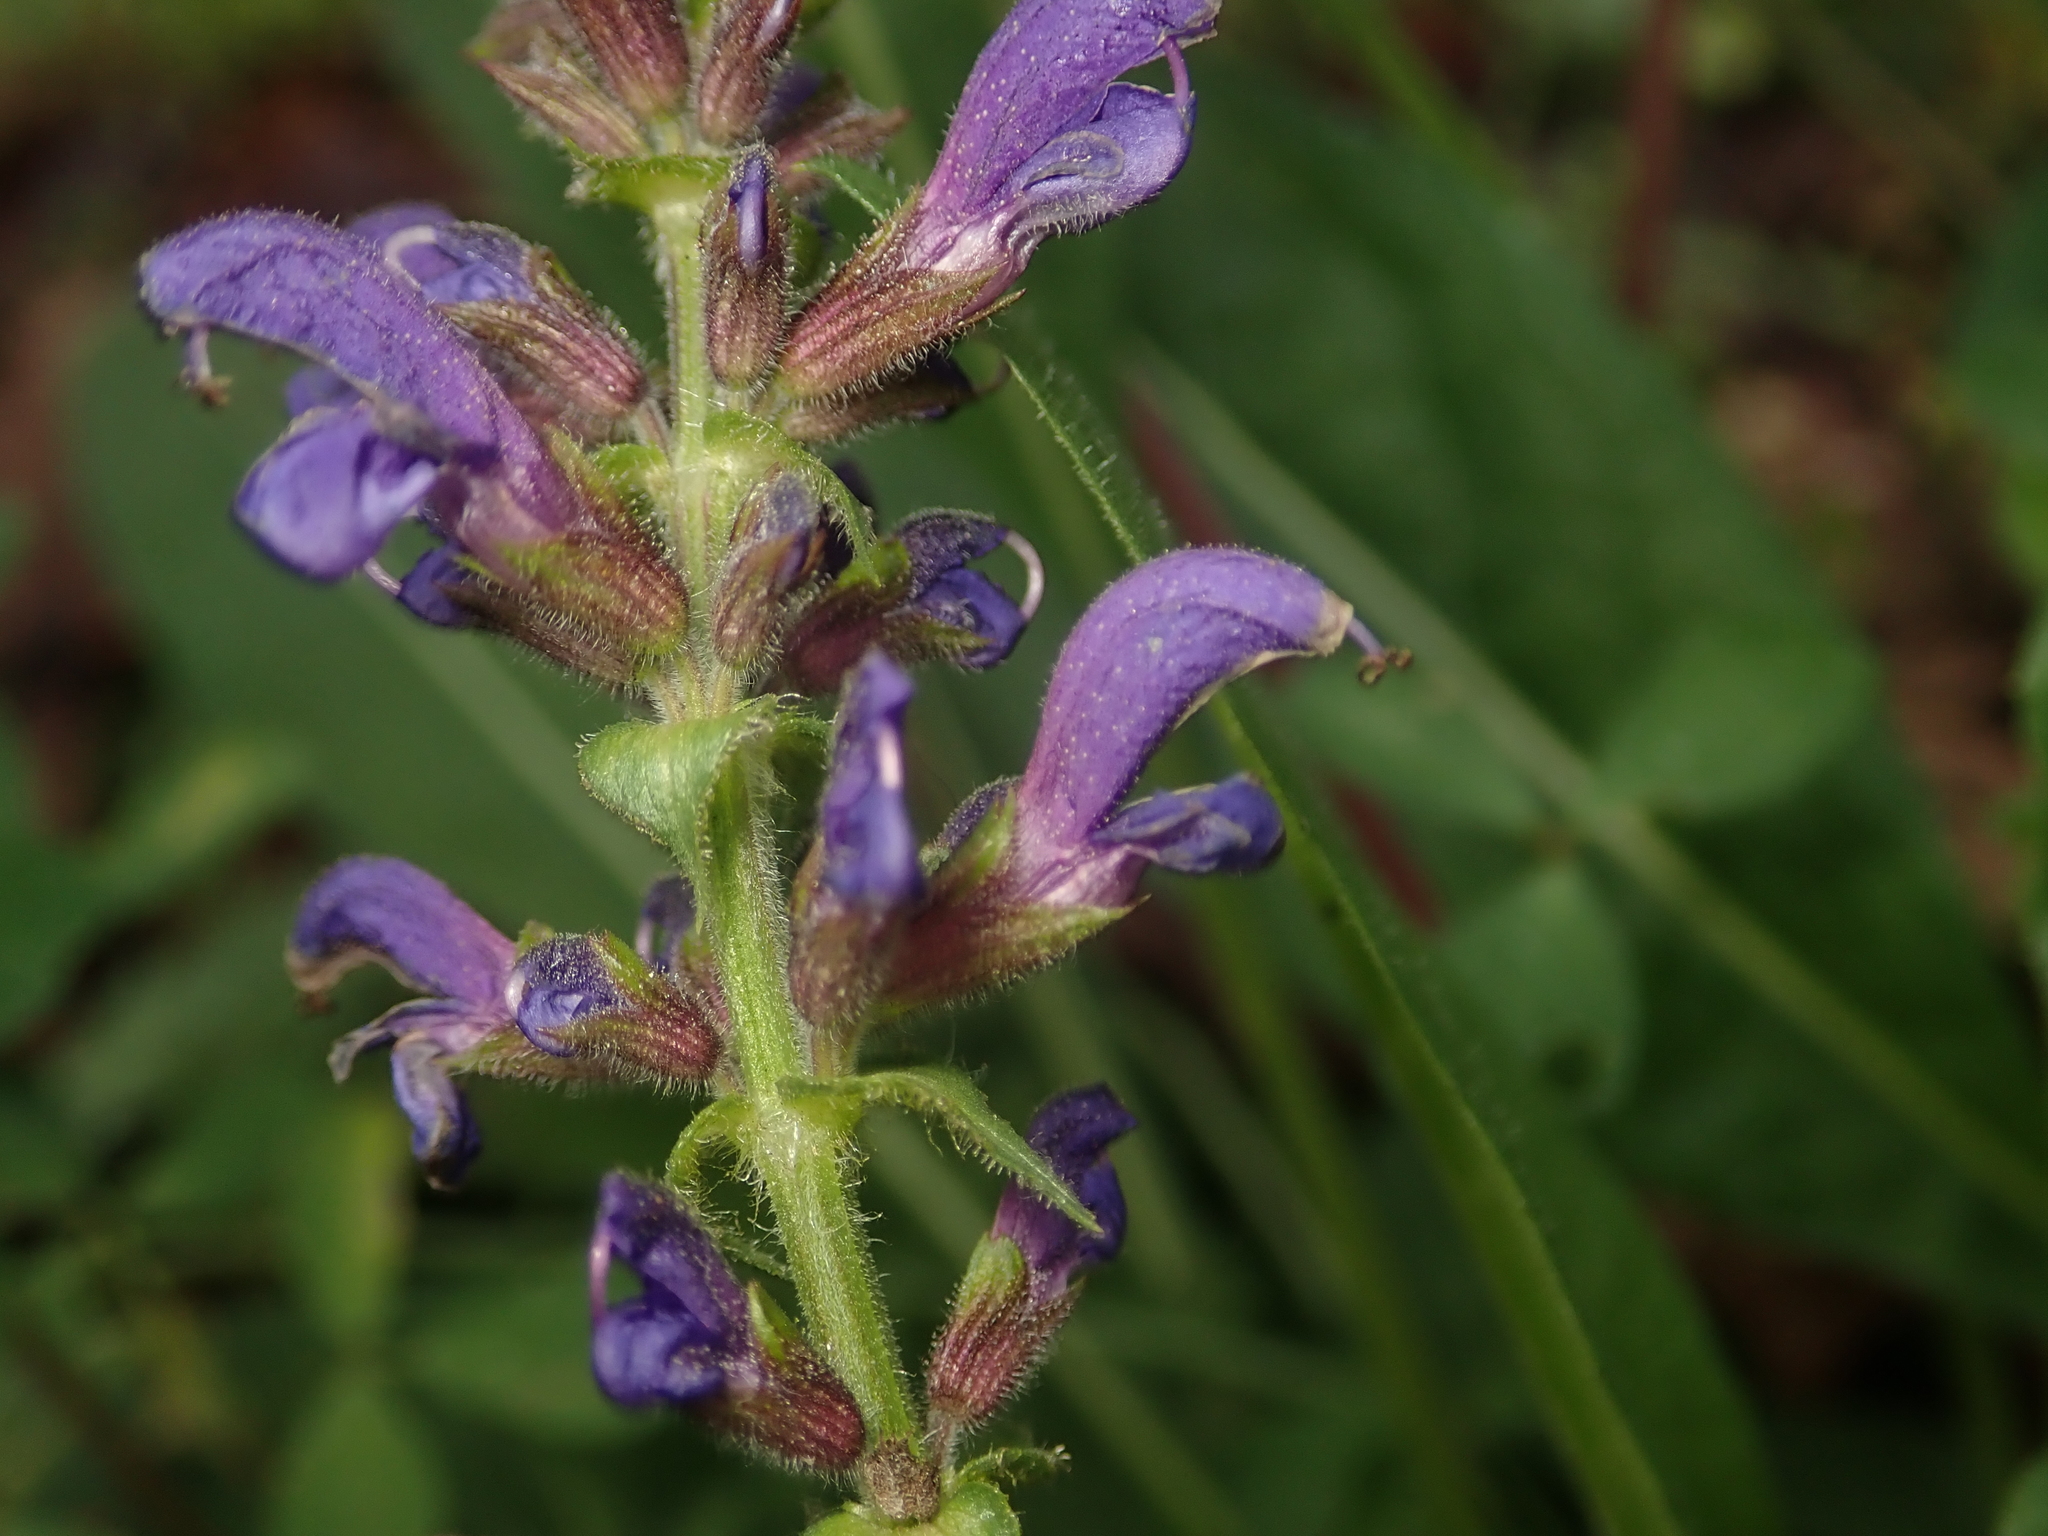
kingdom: Plantae
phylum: Tracheophyta
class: Magnoliopsida
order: Lamiales
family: Lamiaceae
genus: Salvia
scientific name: Salvia pratensis
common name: Meadow sage
